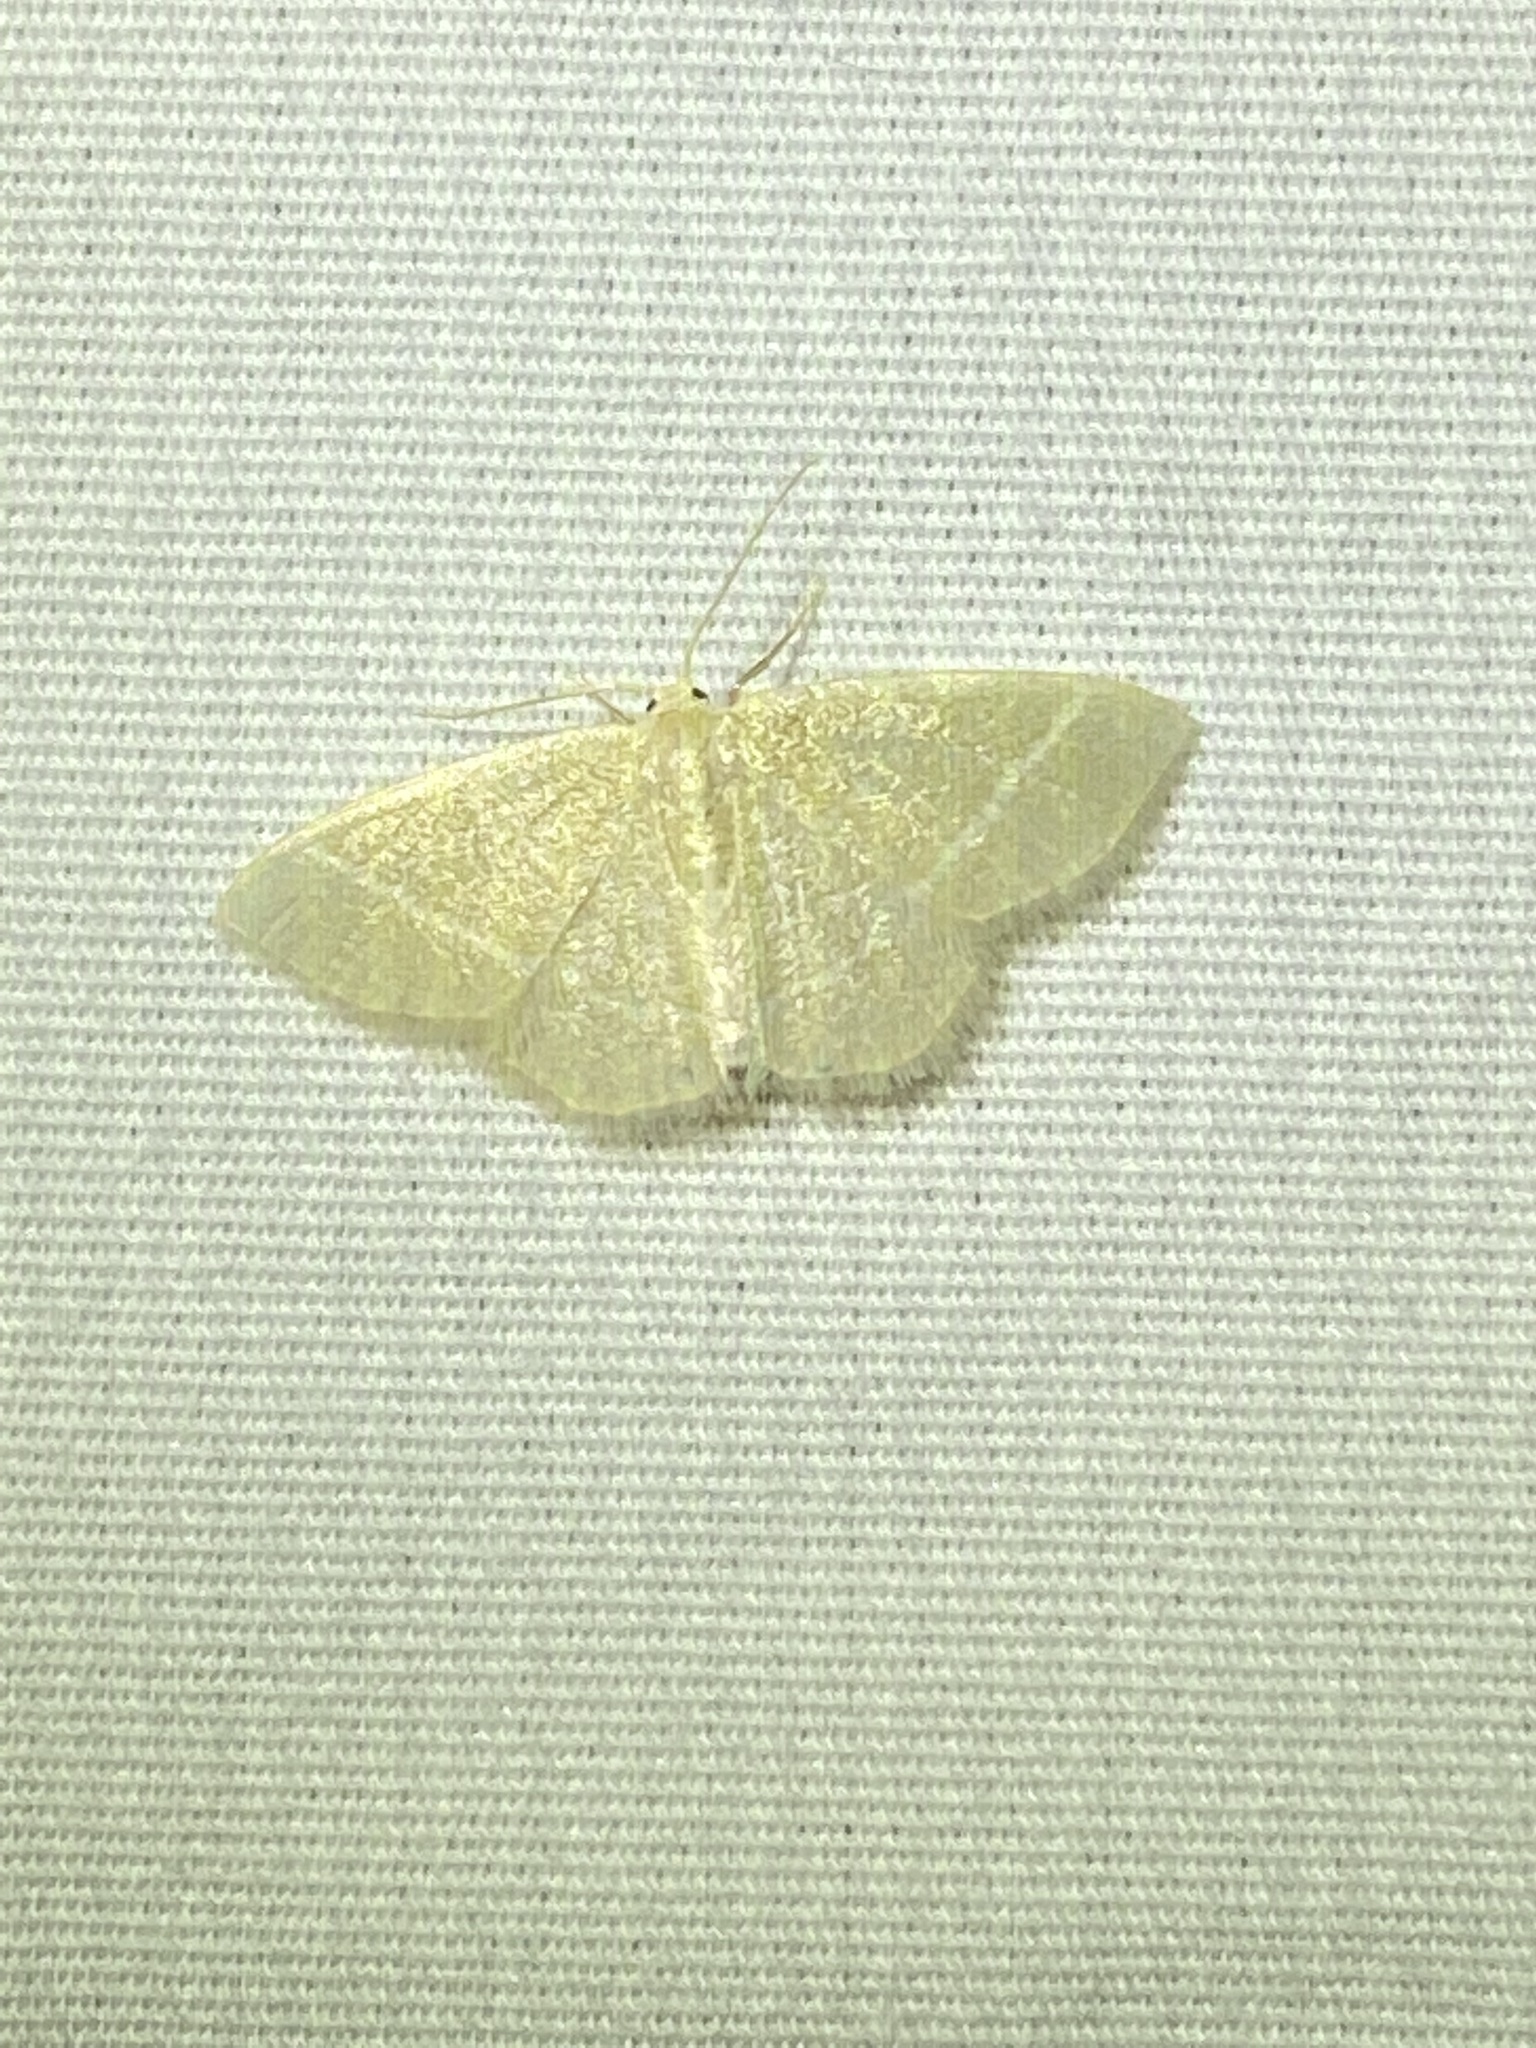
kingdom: Animalia
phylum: Arthropoda
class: Insecta
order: Lepidoptera
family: Geometridae
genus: Chlorochlamys
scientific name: Chlorochlamys chloroleucaria
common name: Blackberry looper
